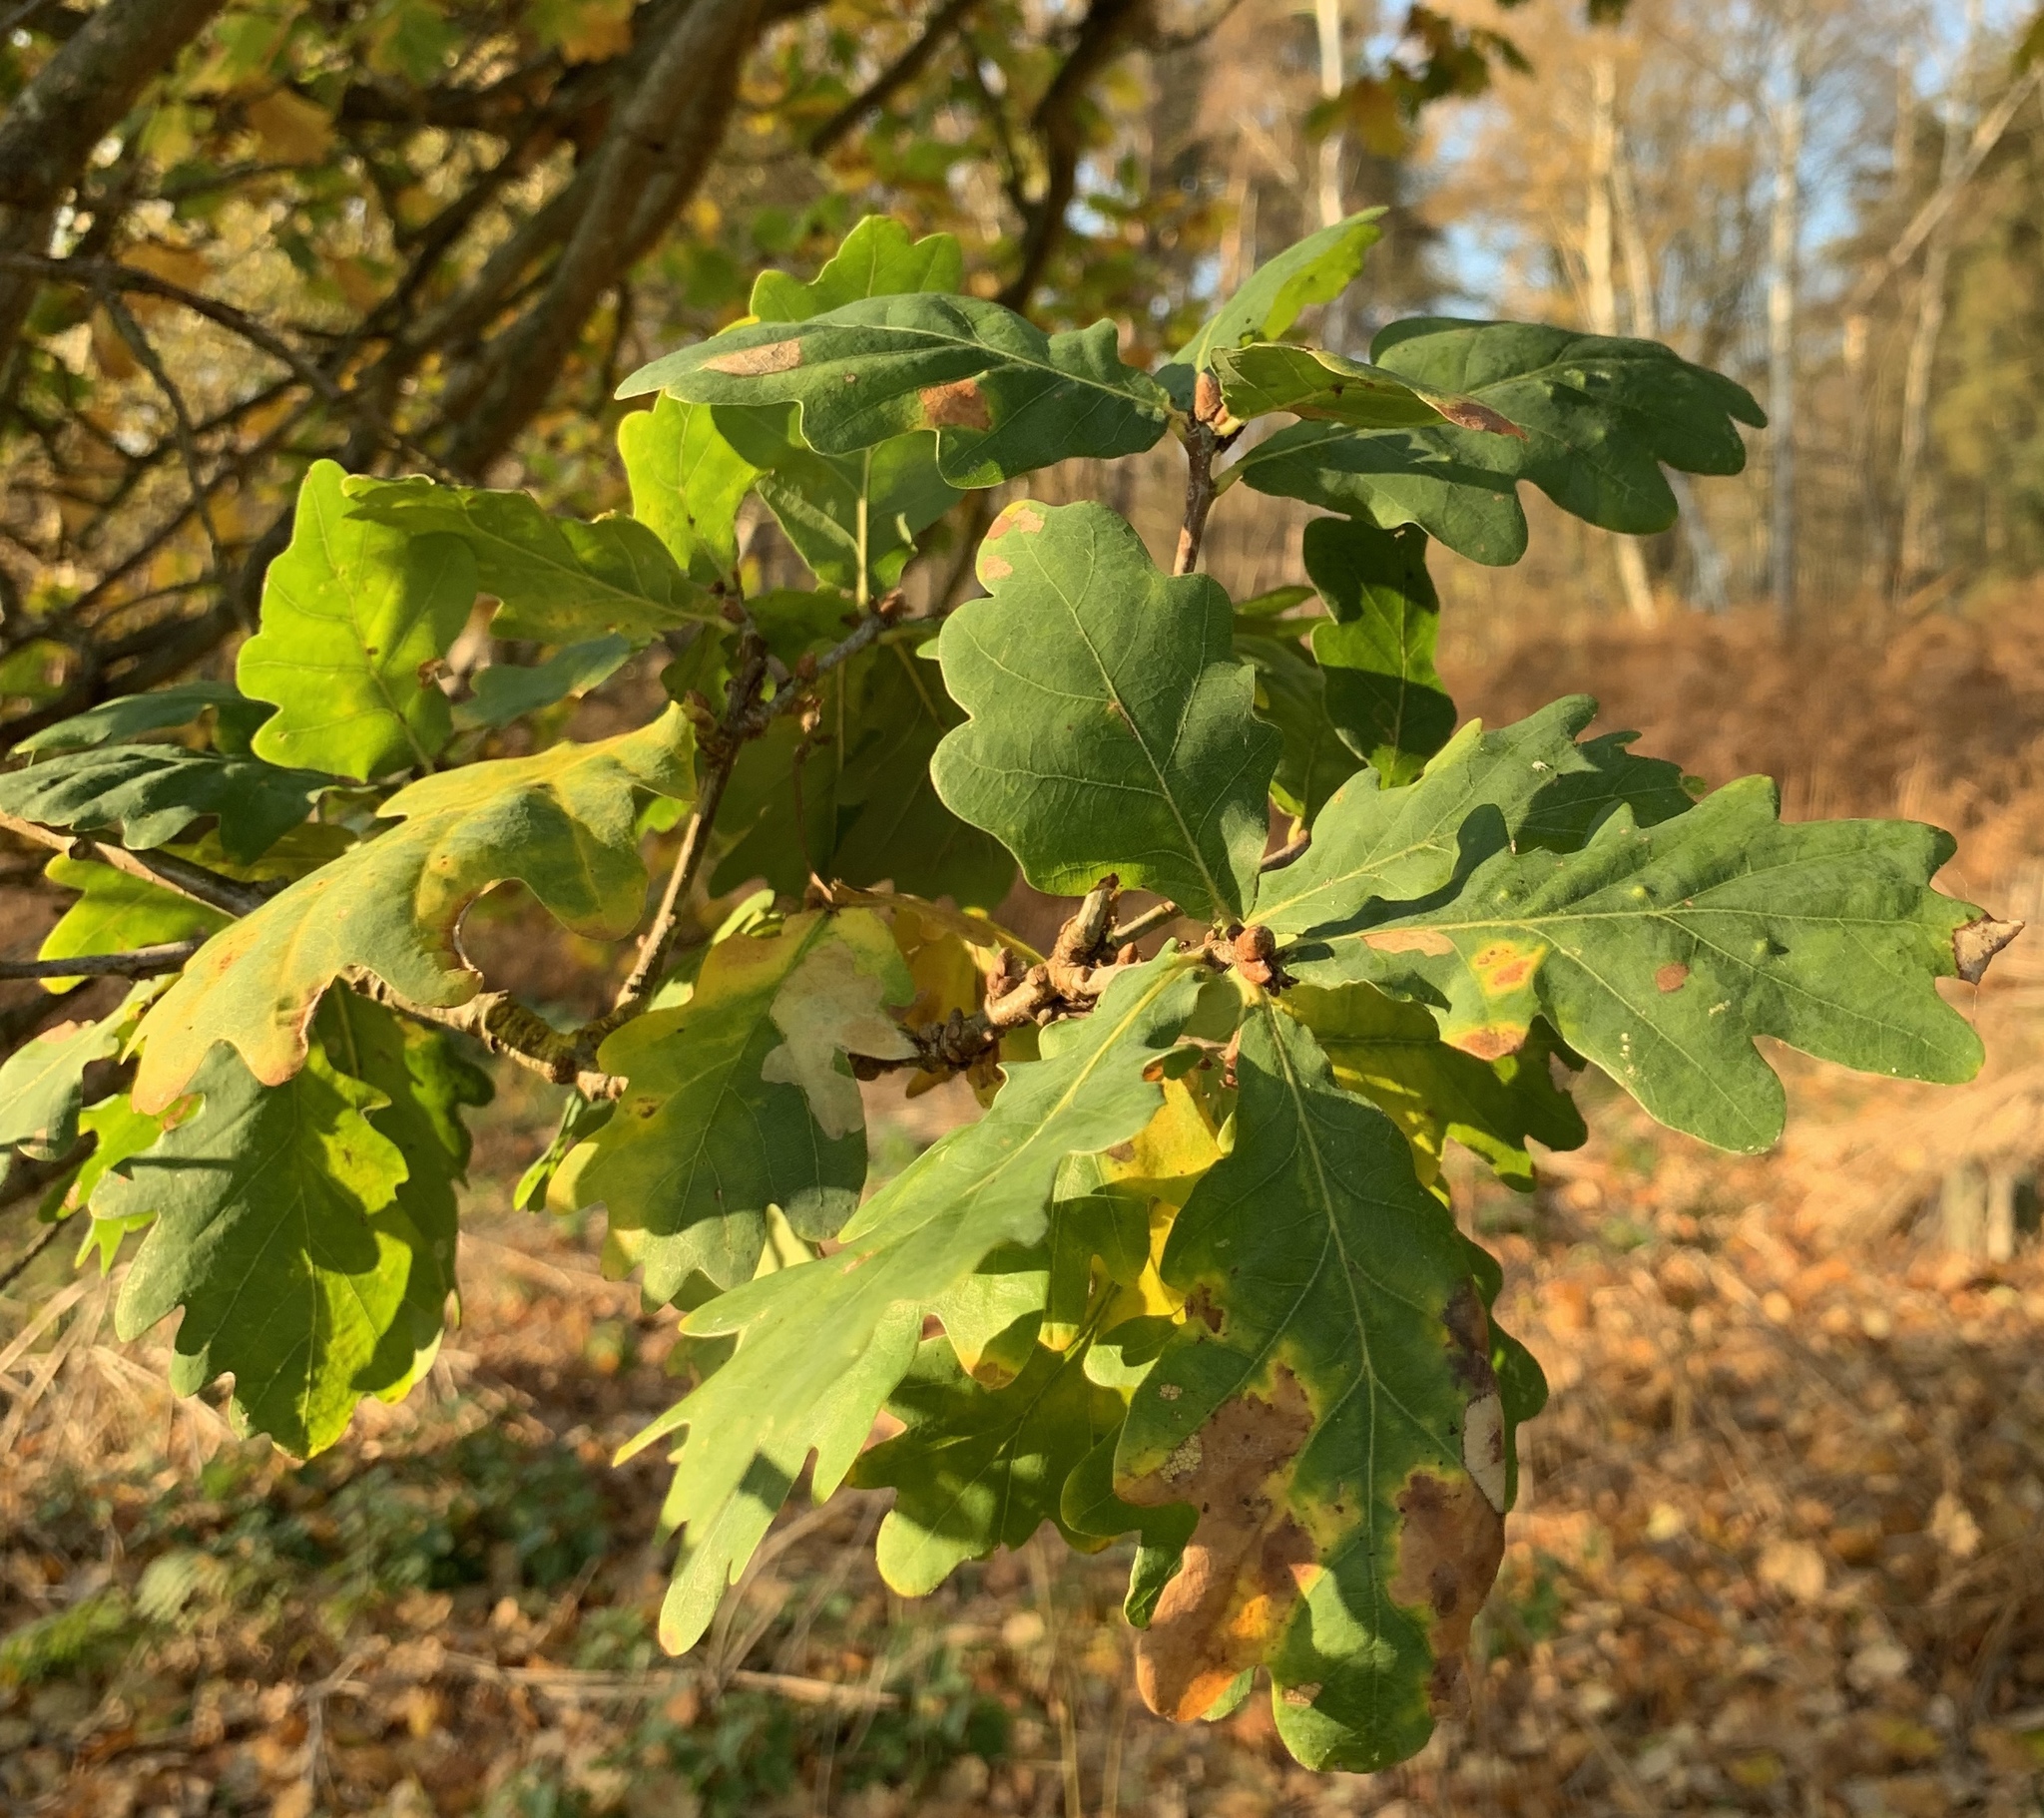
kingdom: Plantae
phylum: Tracheophyta
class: Magnoliopsida
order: Fagales
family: Fagaceae
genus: Quercus
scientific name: Quercus robur
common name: Pedunculate oak
